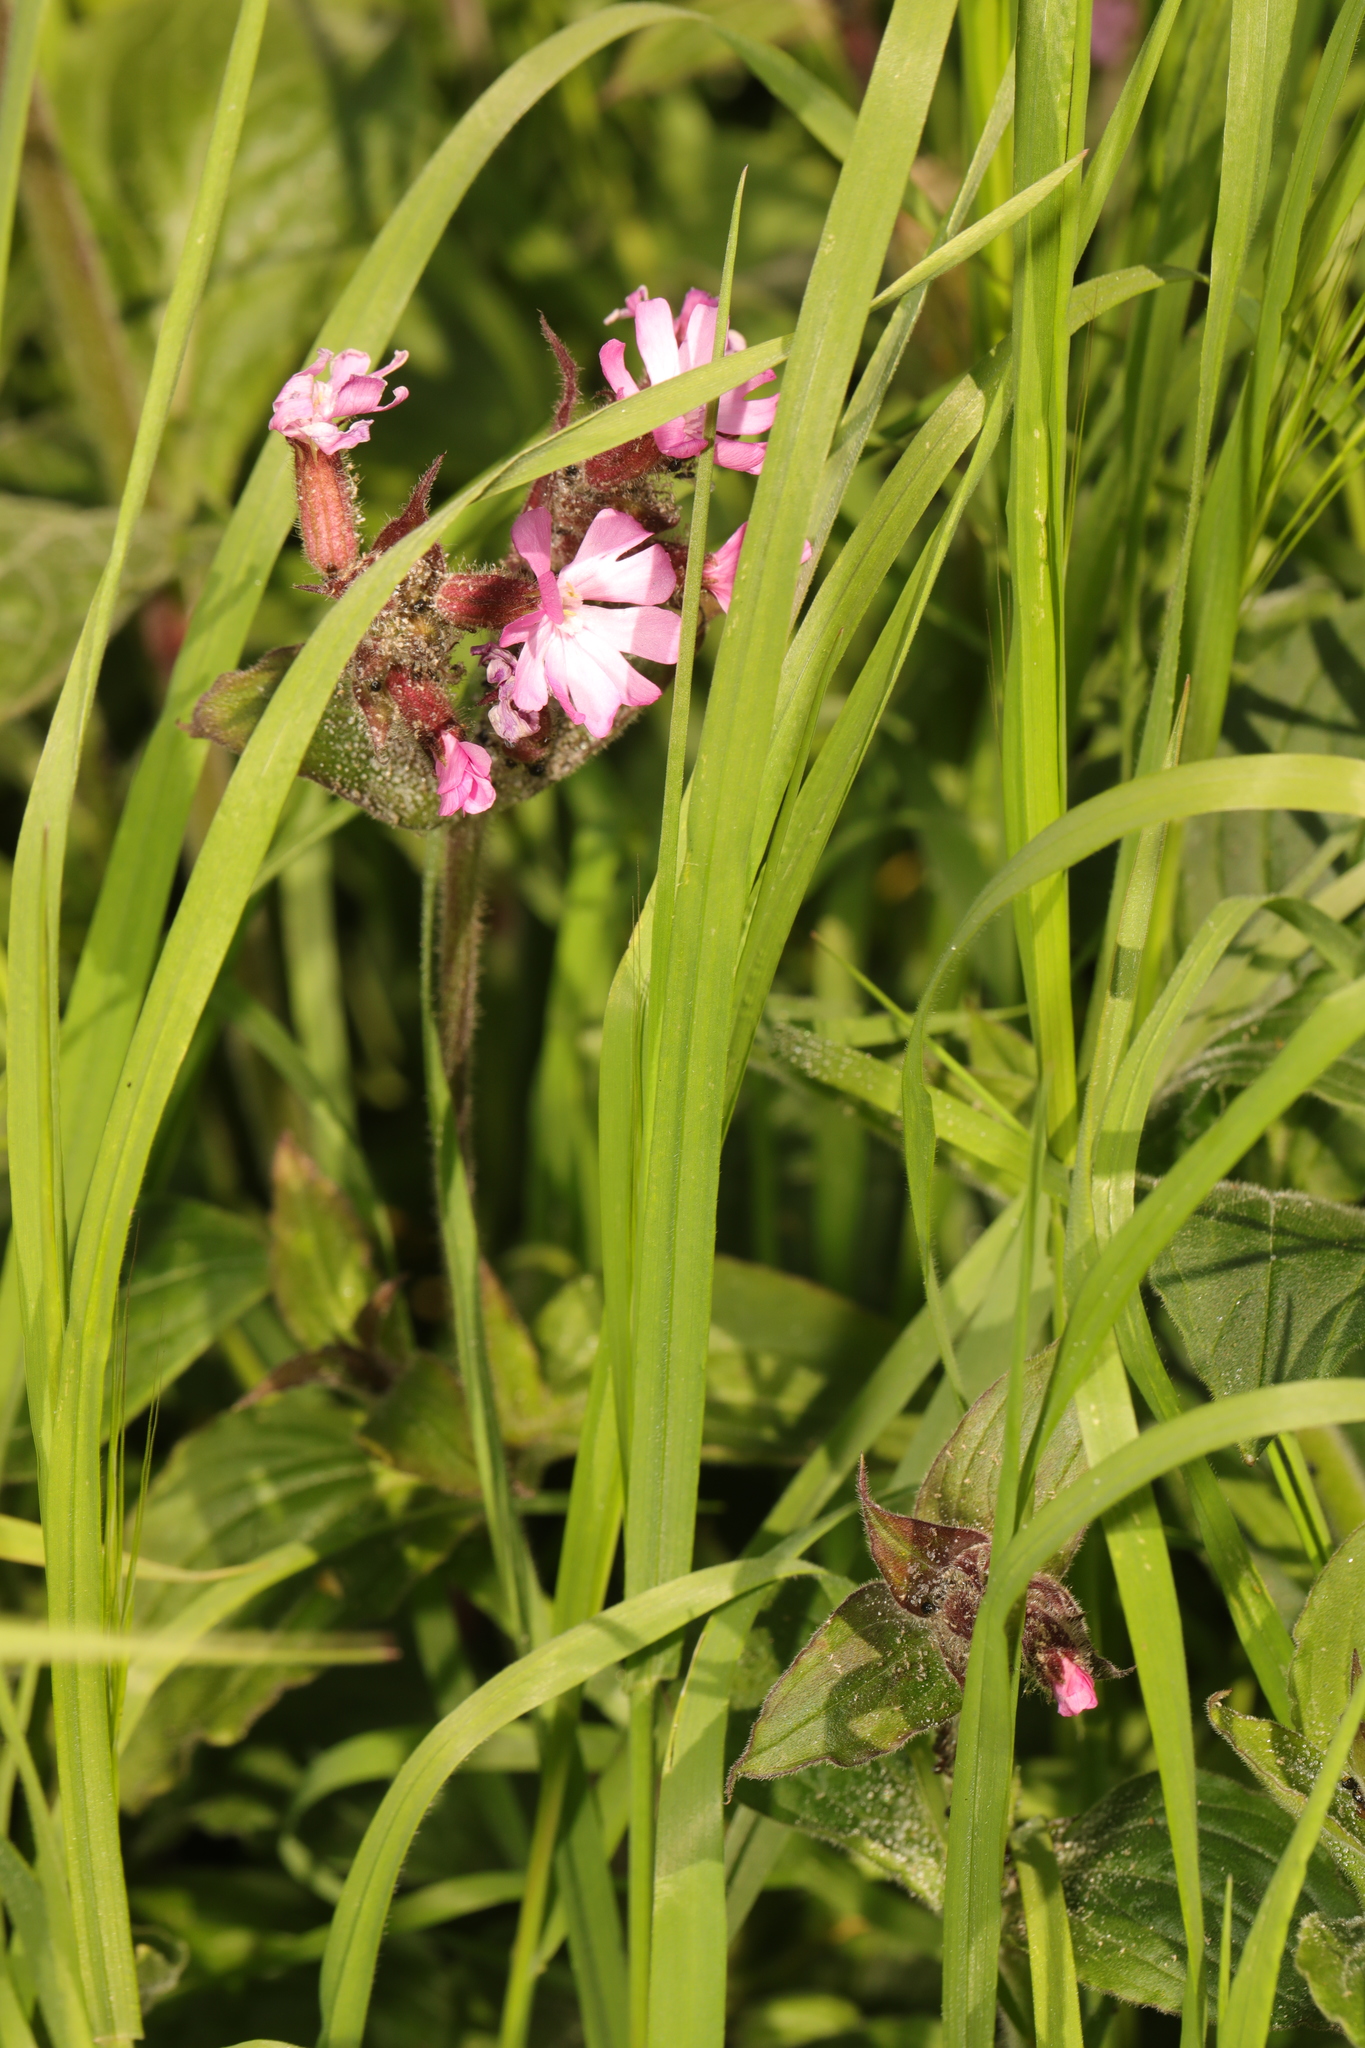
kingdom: Plantae
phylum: Tracheophyta
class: Magnoliopsida
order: Caryophyllales
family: Caryophyllaceae
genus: Silene
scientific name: Silene dioica
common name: Red campion
